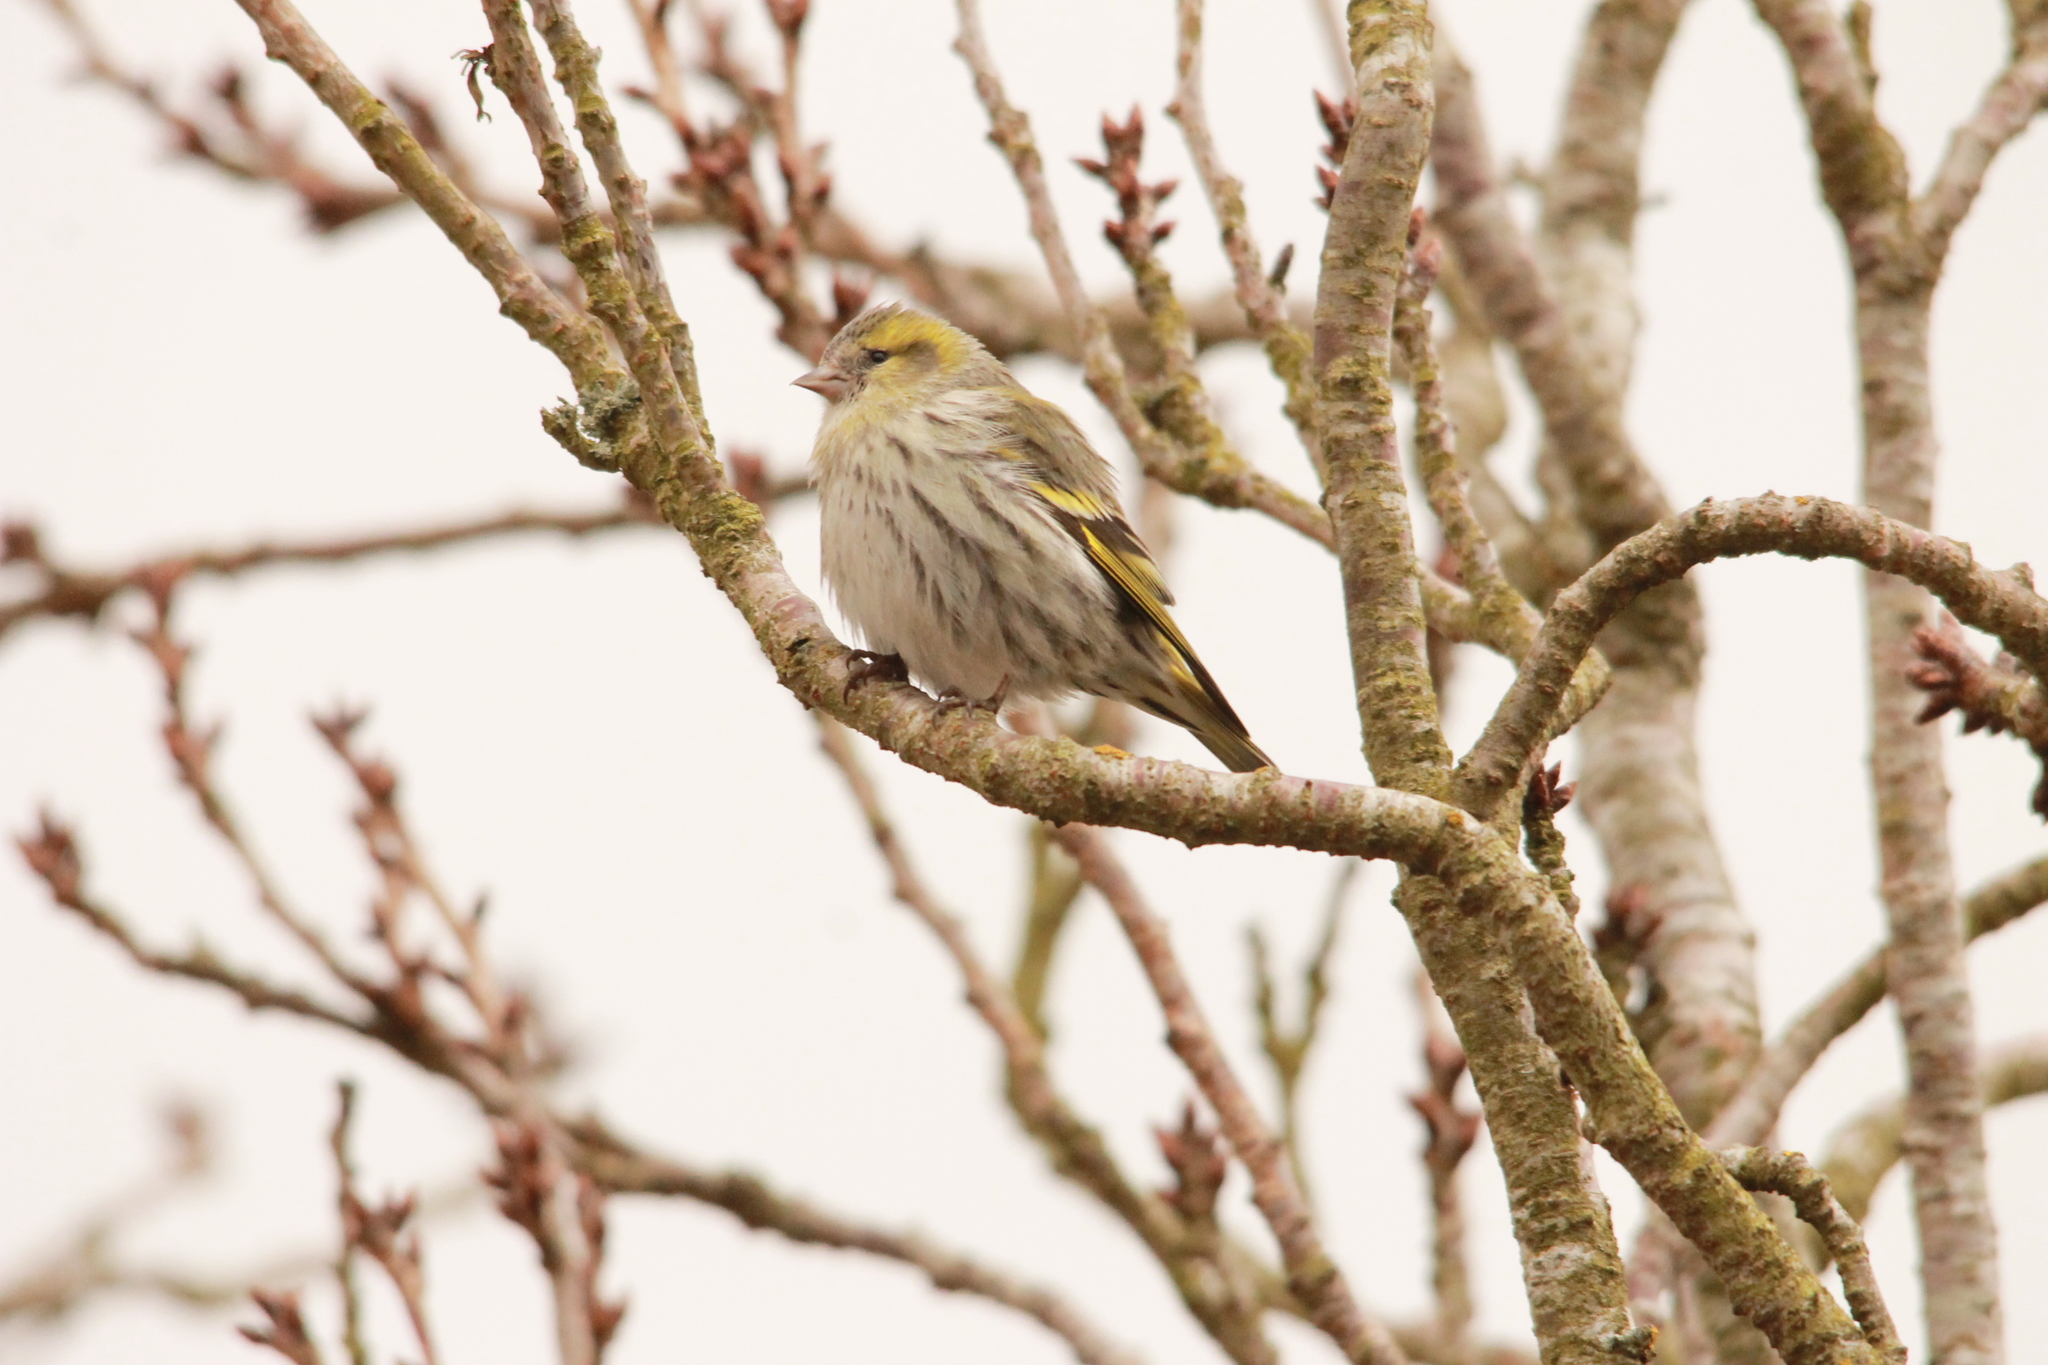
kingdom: Animalia
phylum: Chordata
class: Aves
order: Passeriformes
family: Fringillidae
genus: Spinus
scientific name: Spinus spinus
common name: Eurasian siskin
